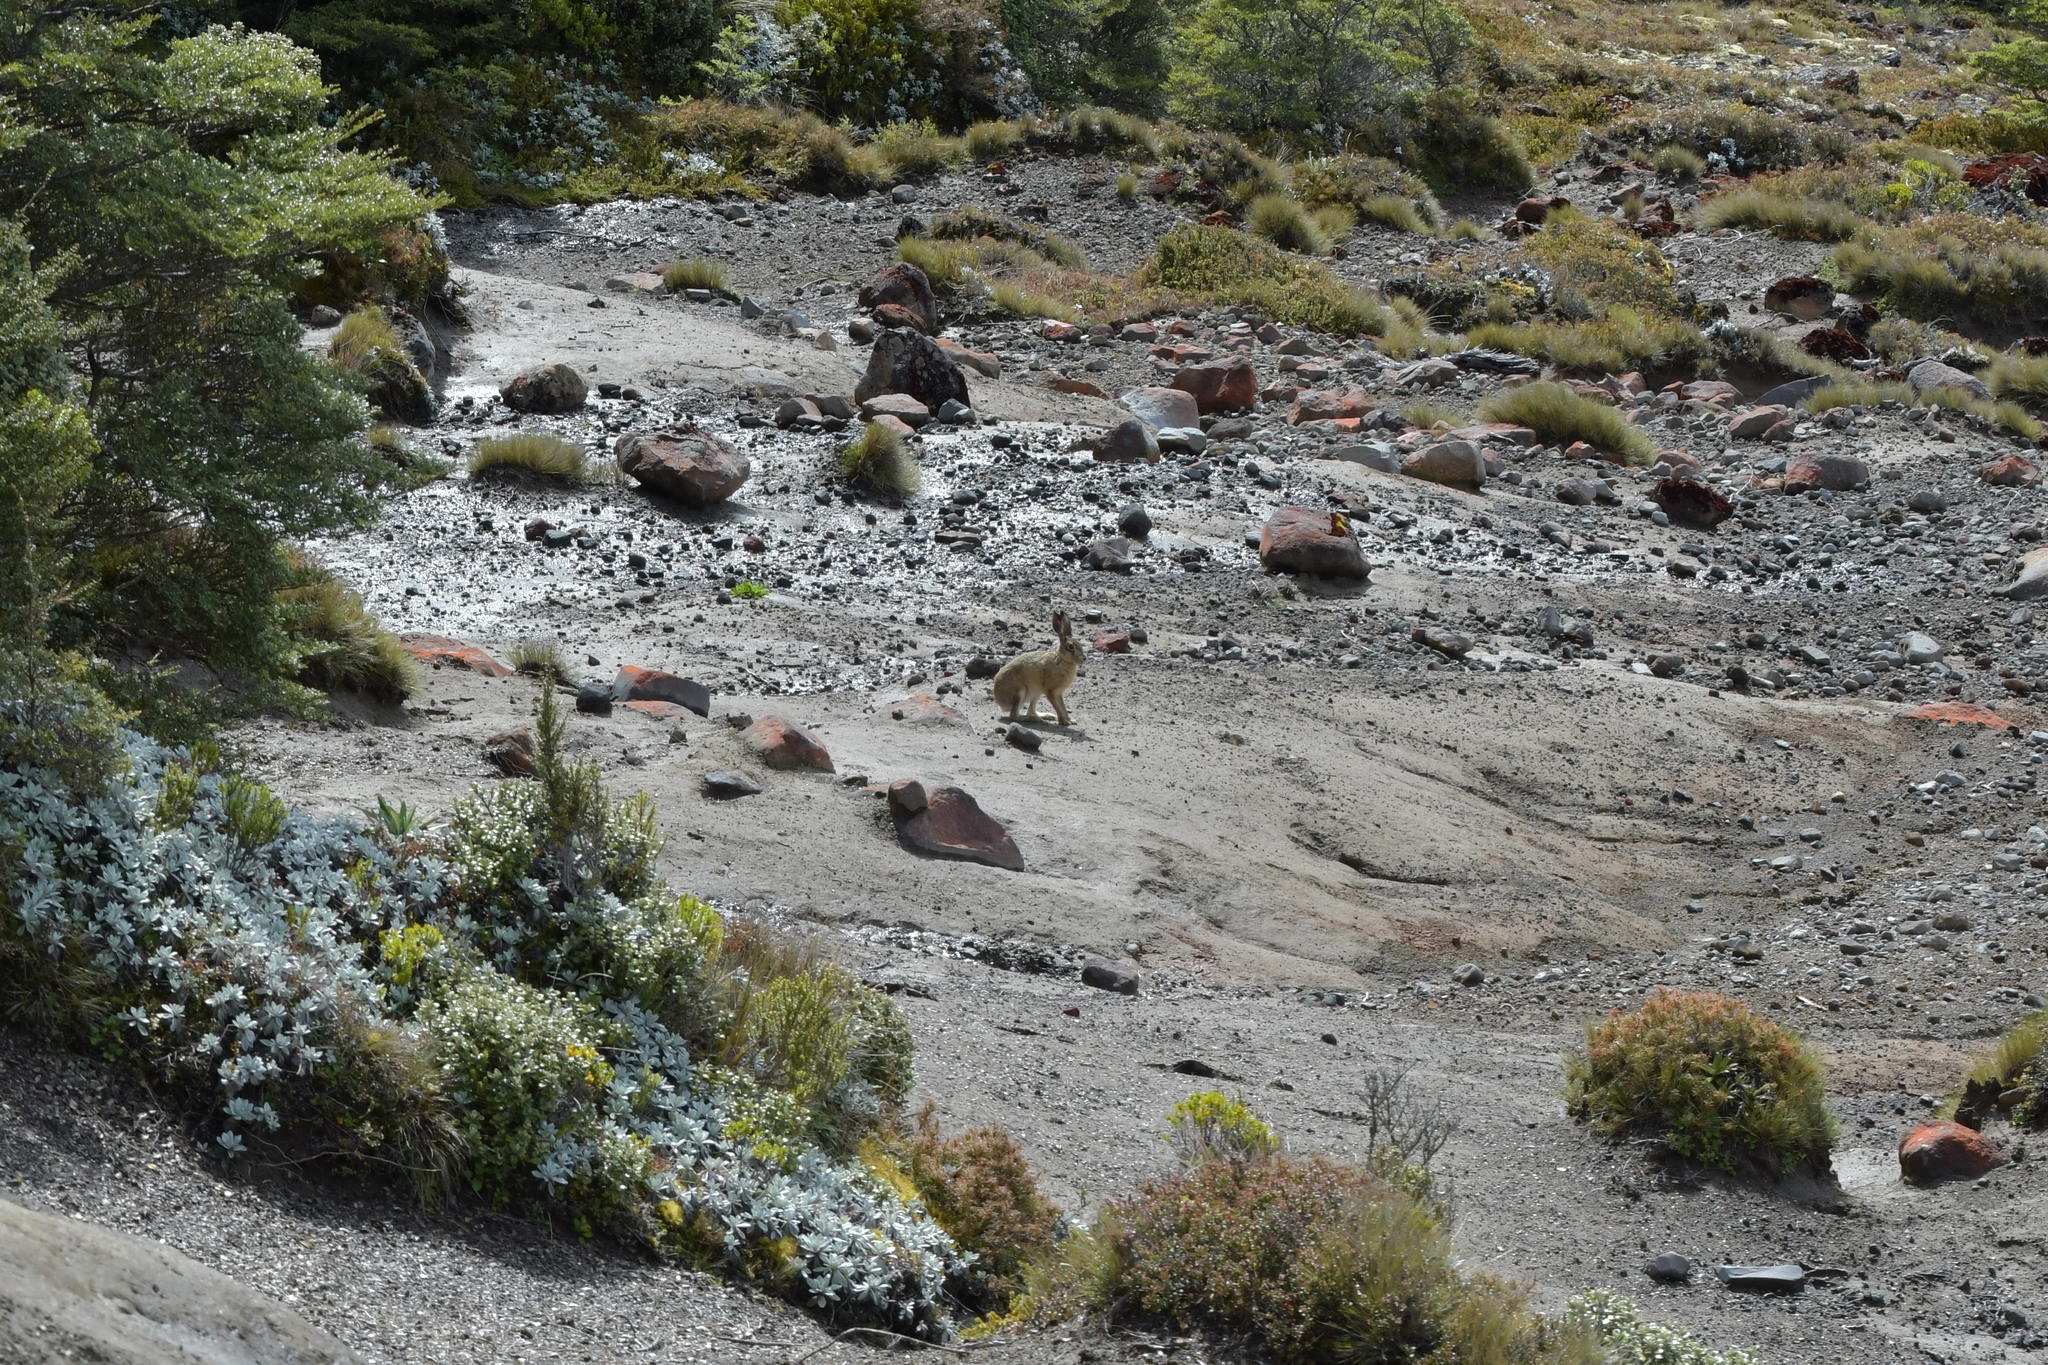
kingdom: Animalia
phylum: Chordata
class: Mammalia
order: Lagomorpha
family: Leporidae
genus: Lepus
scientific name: Lepus europaeus
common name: European hare
